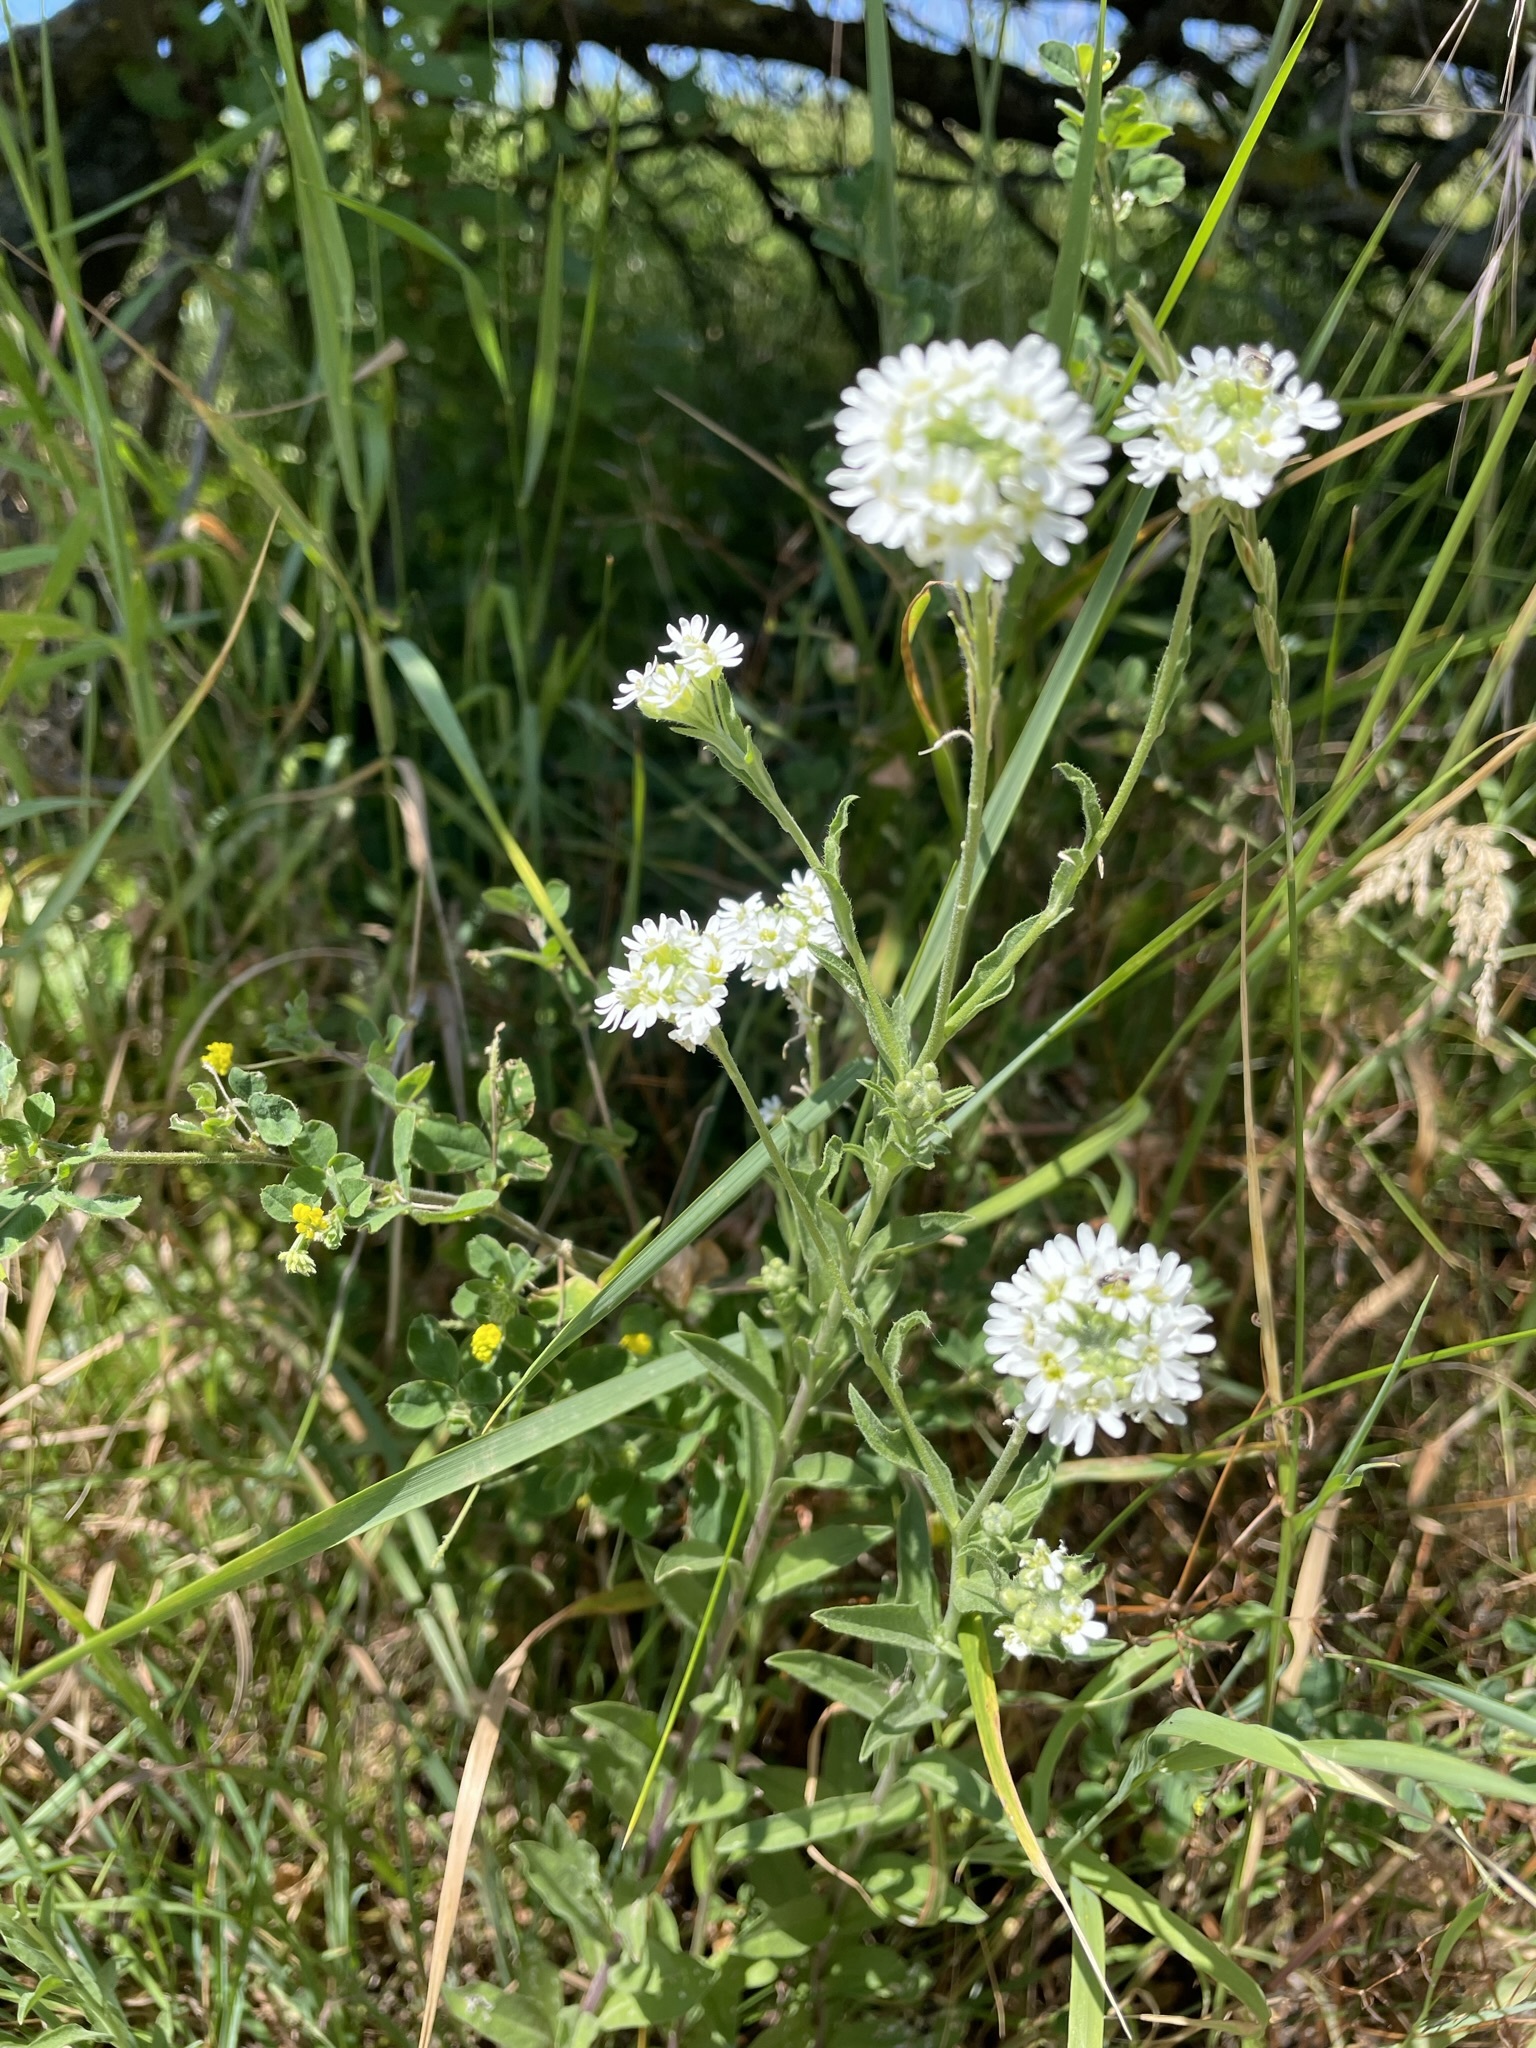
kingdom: Plantae
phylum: Tracheophyta
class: Magnoliopsida
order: Brassicales
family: Brassicaceae
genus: Berteroa
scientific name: Berteroa incana
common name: Hoary alison
